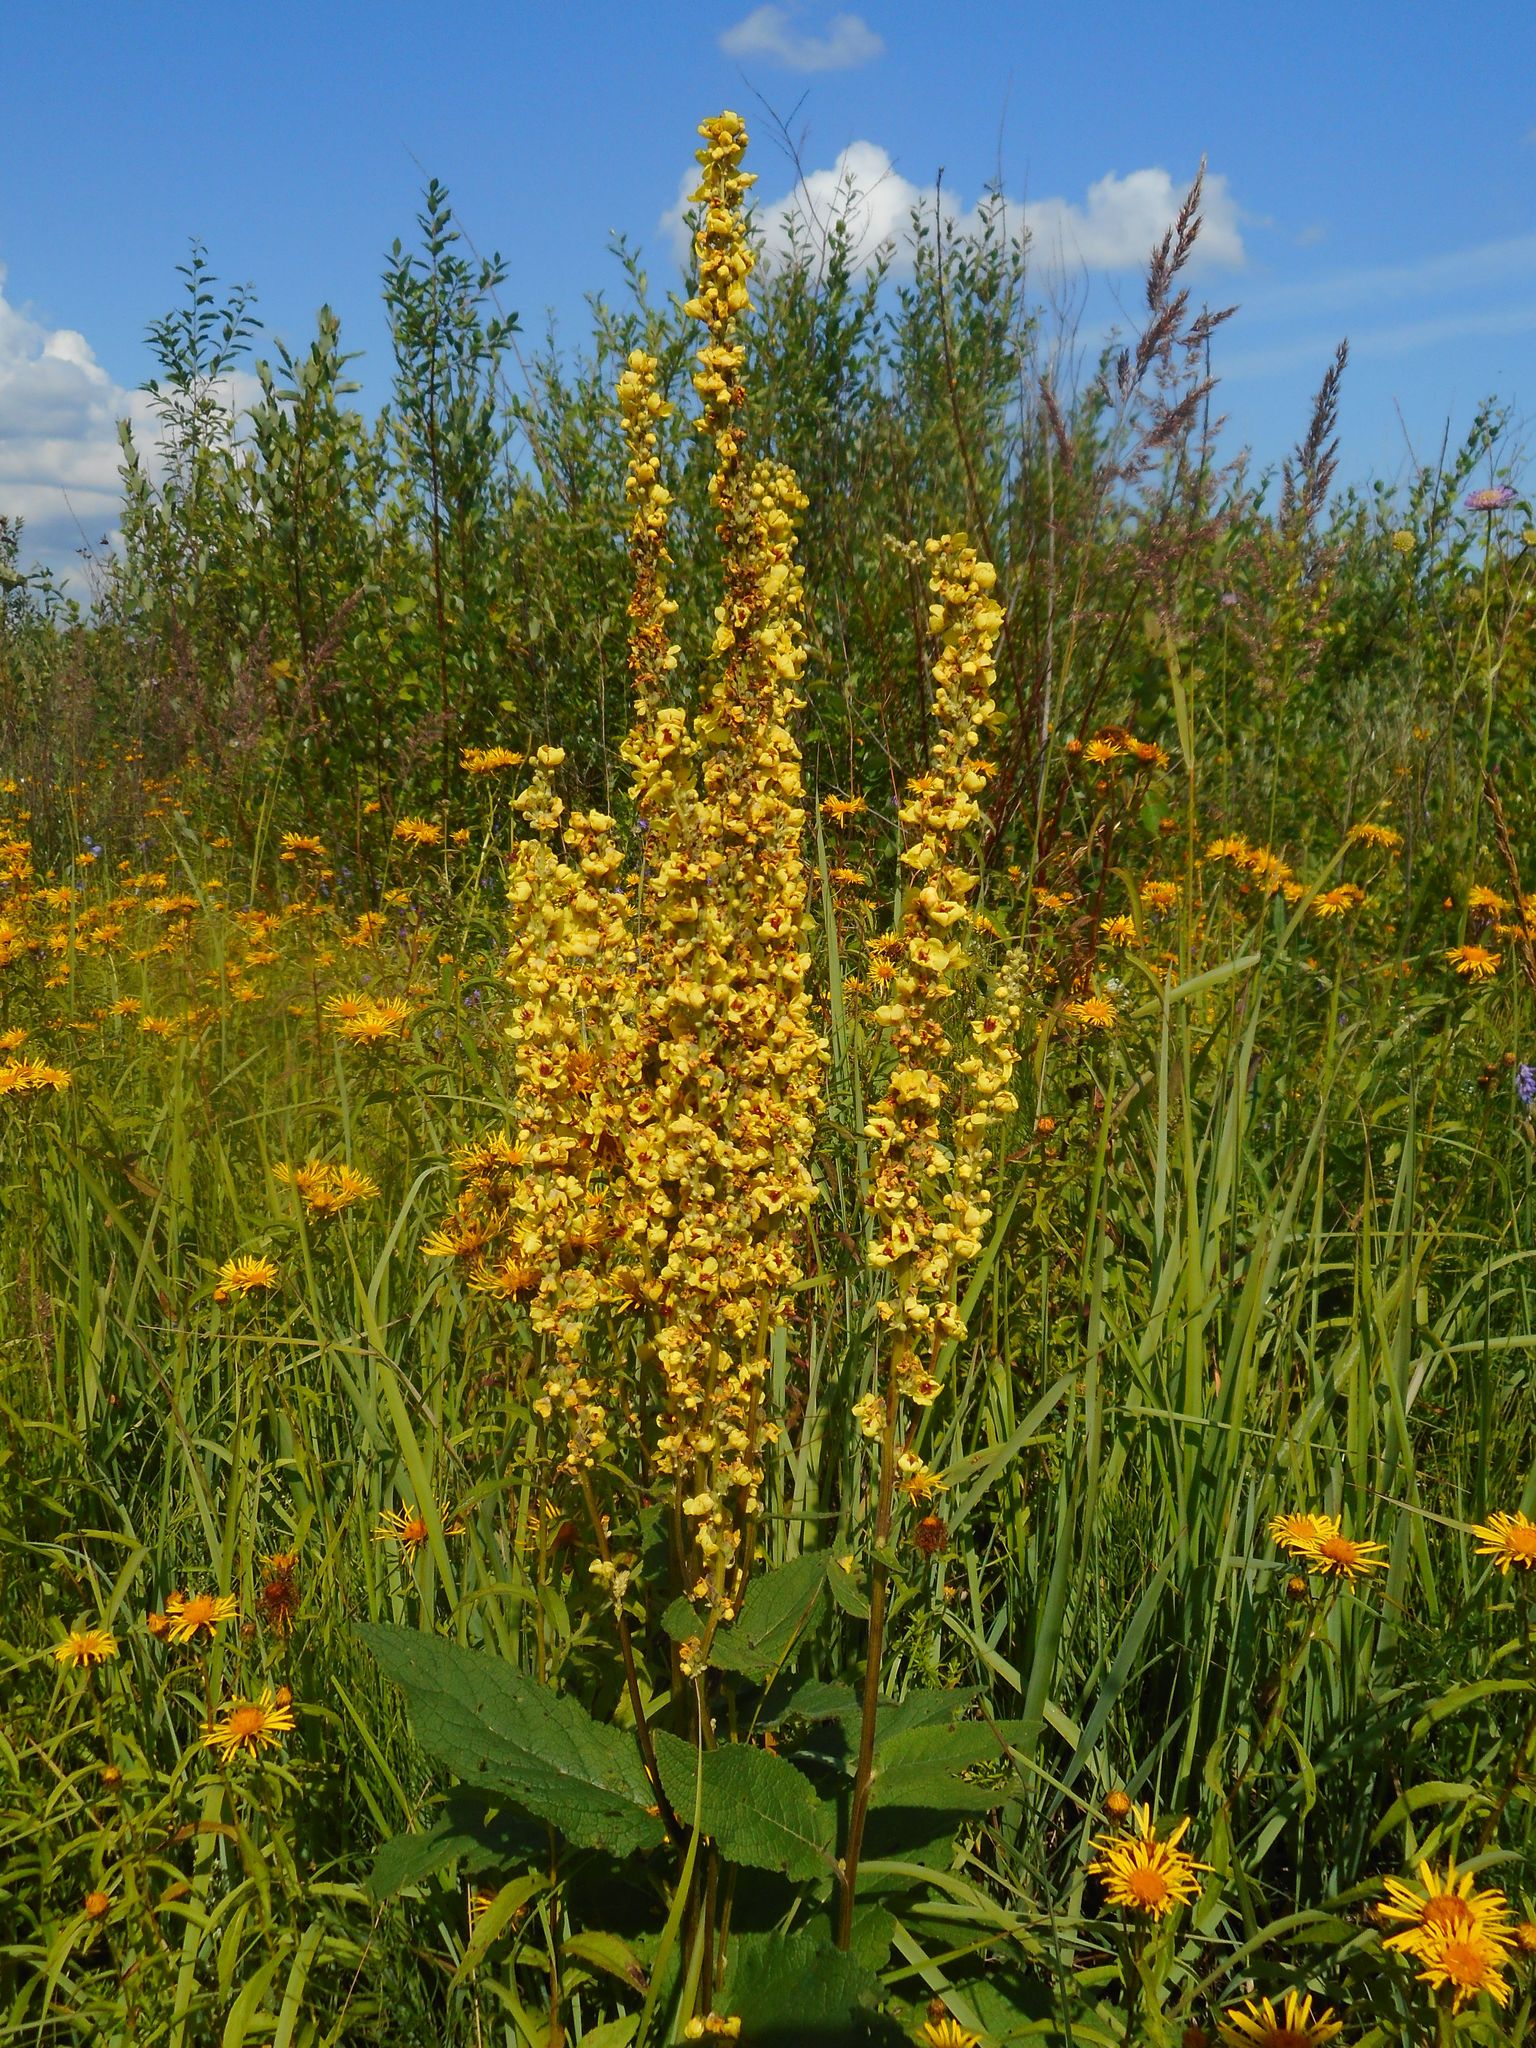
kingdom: Plantae
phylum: Tracheophyta
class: Magnoliopsida
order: Lamiales
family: Scrophulariaceae
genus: Verbascum
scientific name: Verbascum nigrum
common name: Dark mullein
